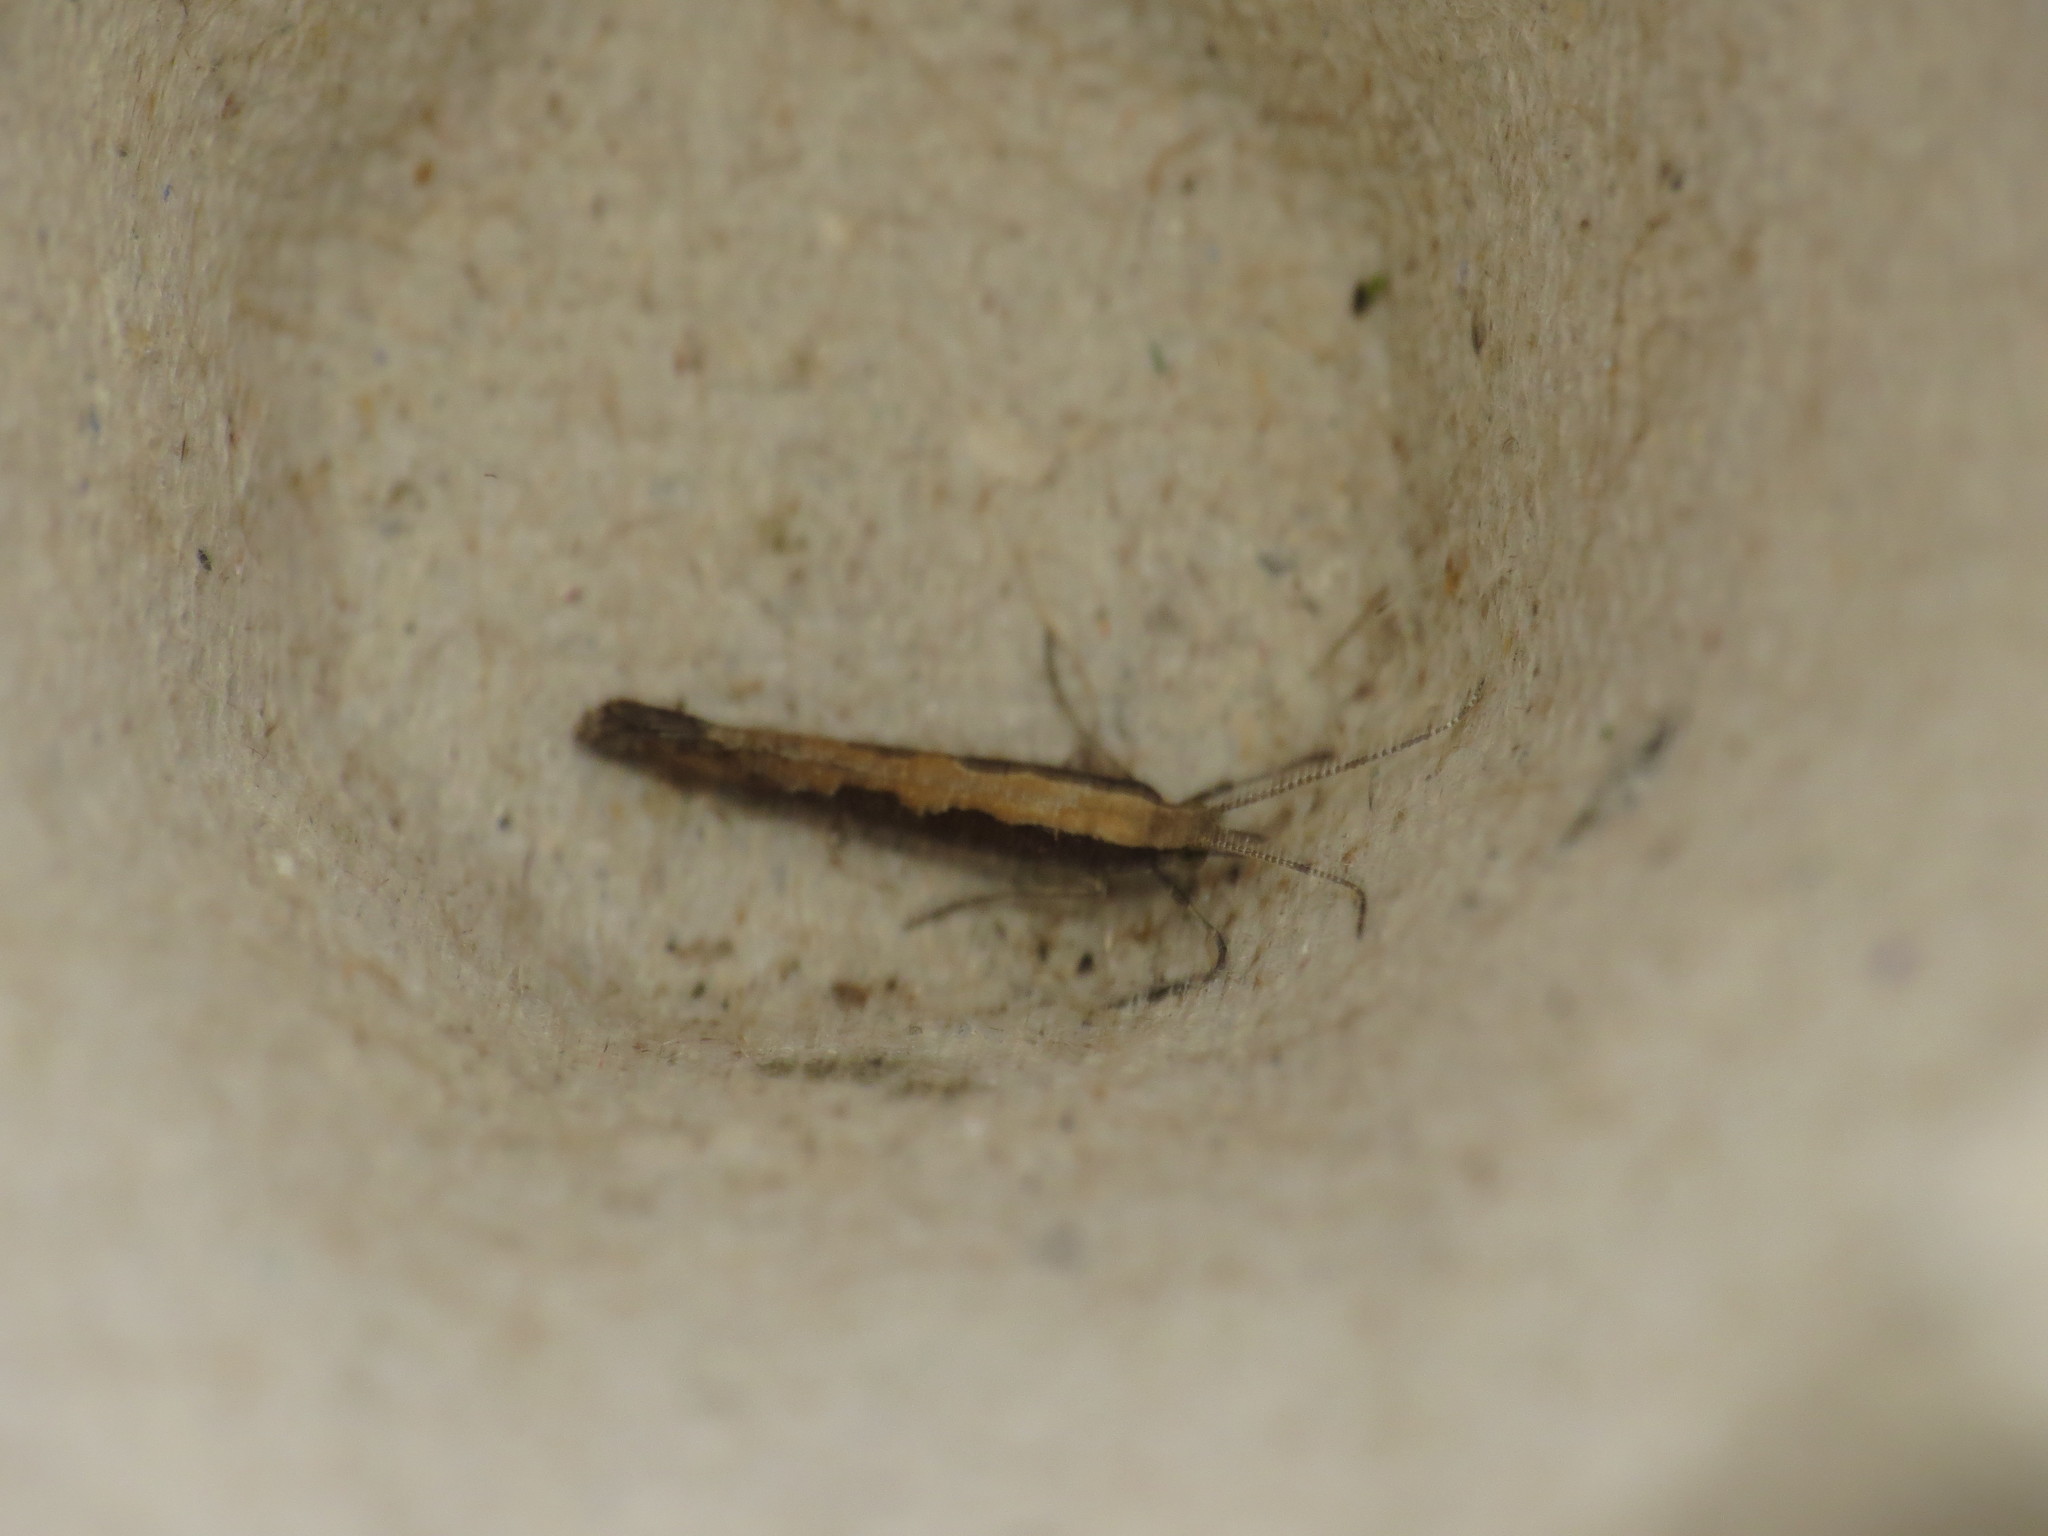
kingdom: Animalia
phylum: Arthropoda
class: Insecta
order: Lepidoptera
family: Plutellidae
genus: Plutella
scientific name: Plutella xylostella
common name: Diamond-back moth
